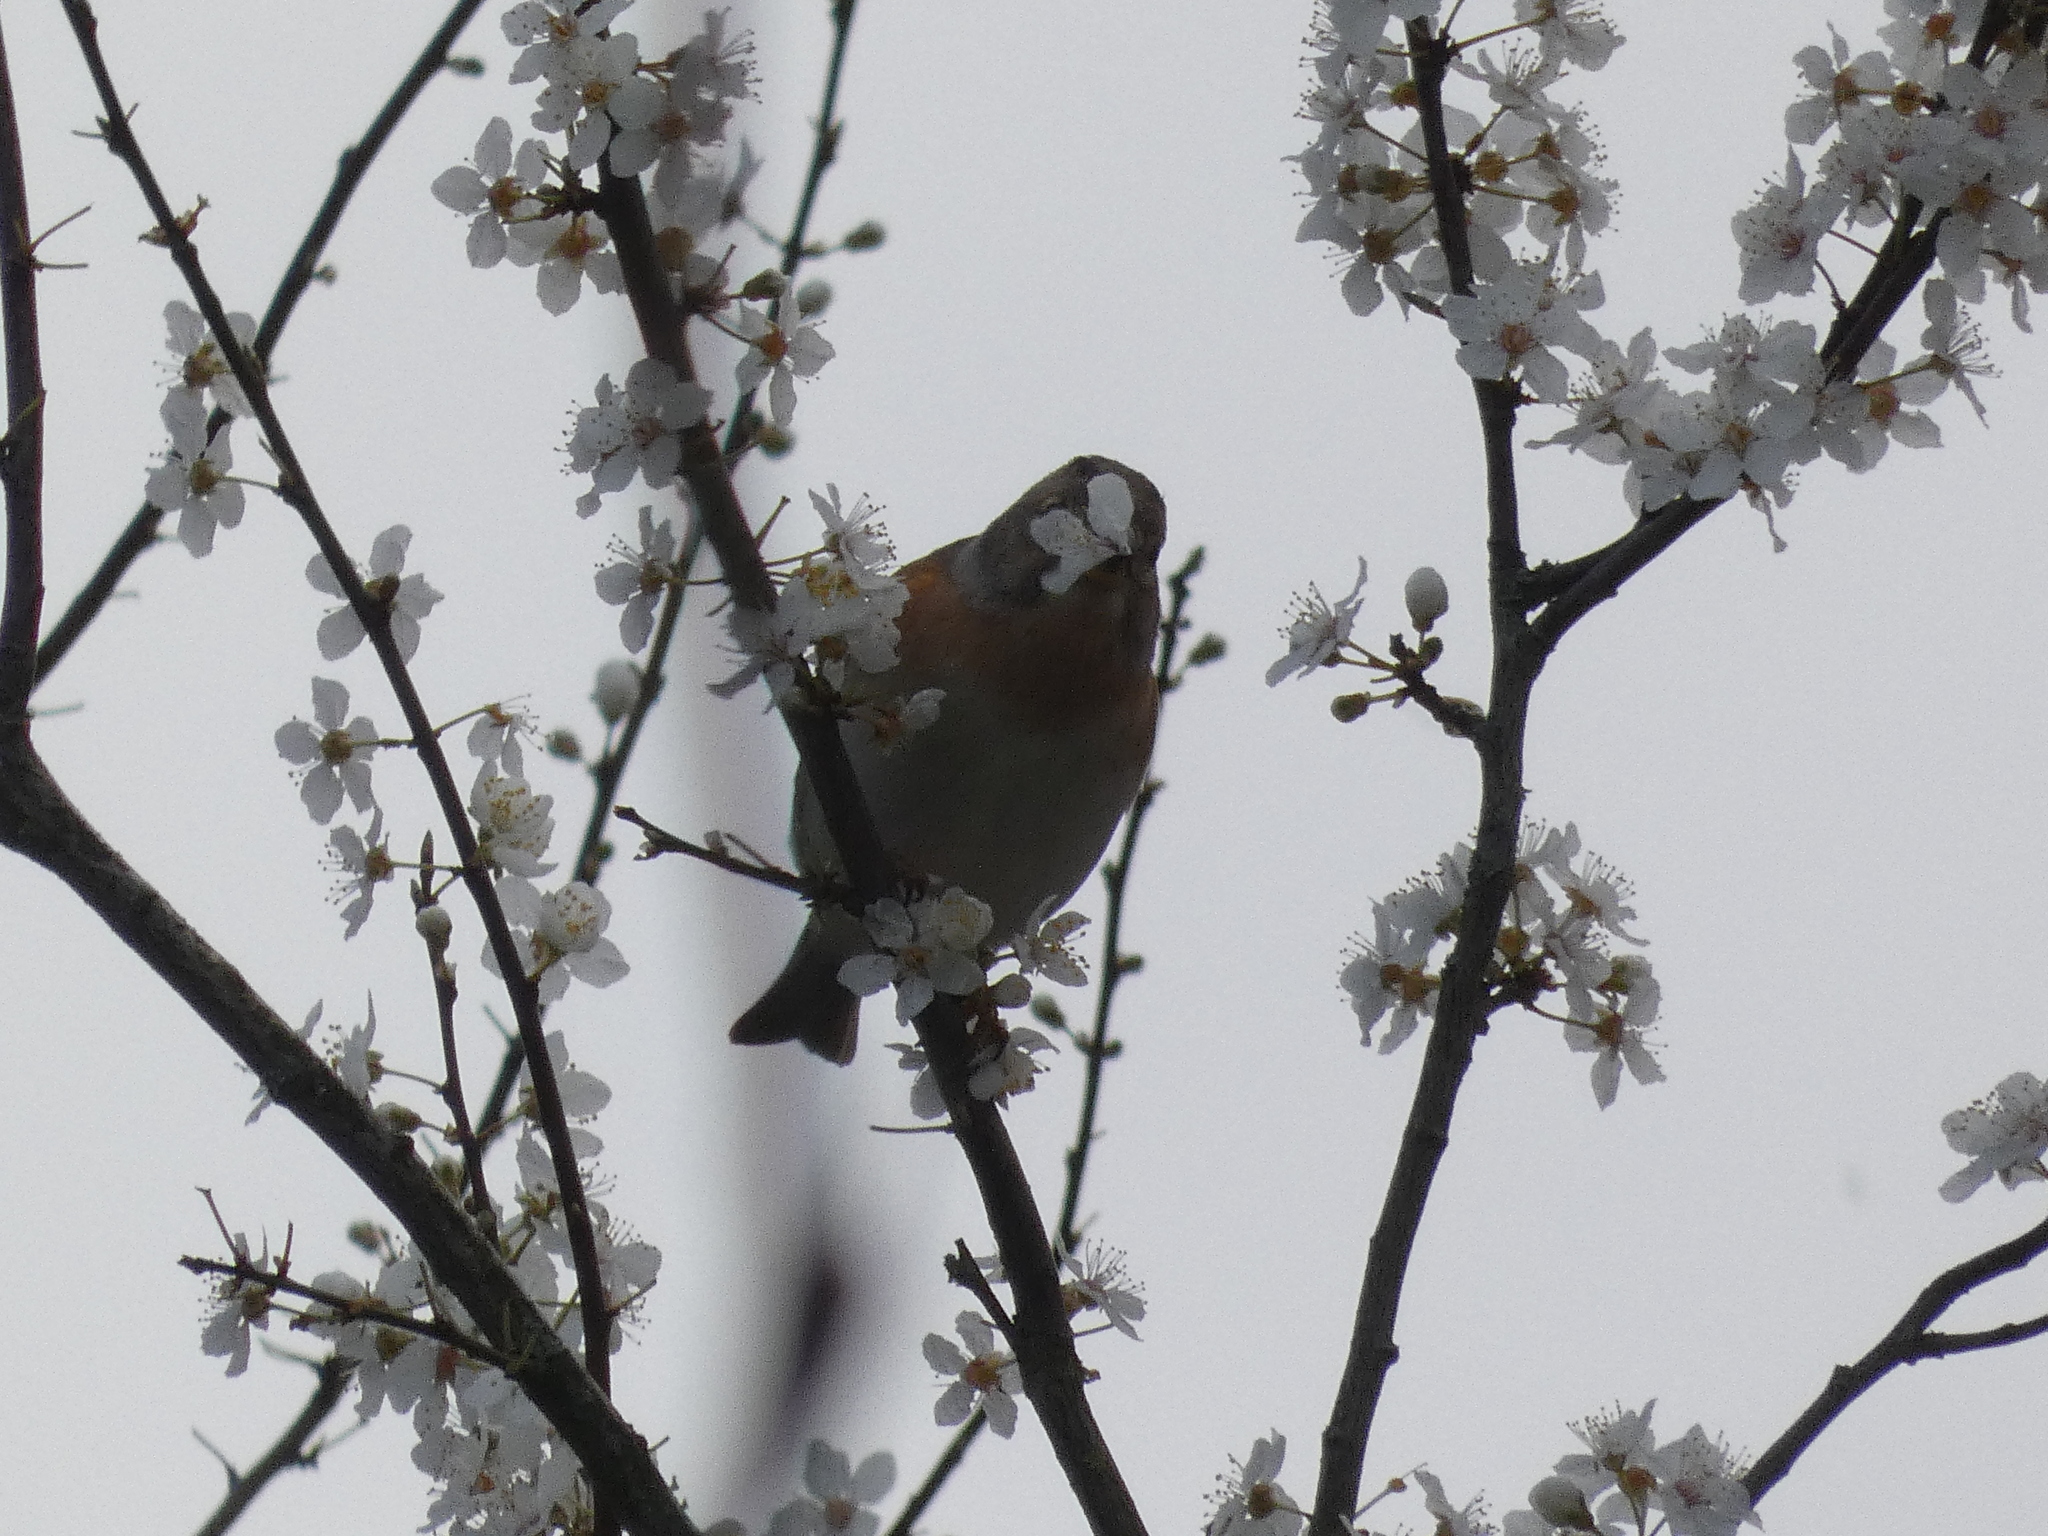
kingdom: Animalia
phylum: Chordata
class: Aves
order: Passeriformes
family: Fringillidae
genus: Fringilla
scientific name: Fringilla montifringilla
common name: Brambling
